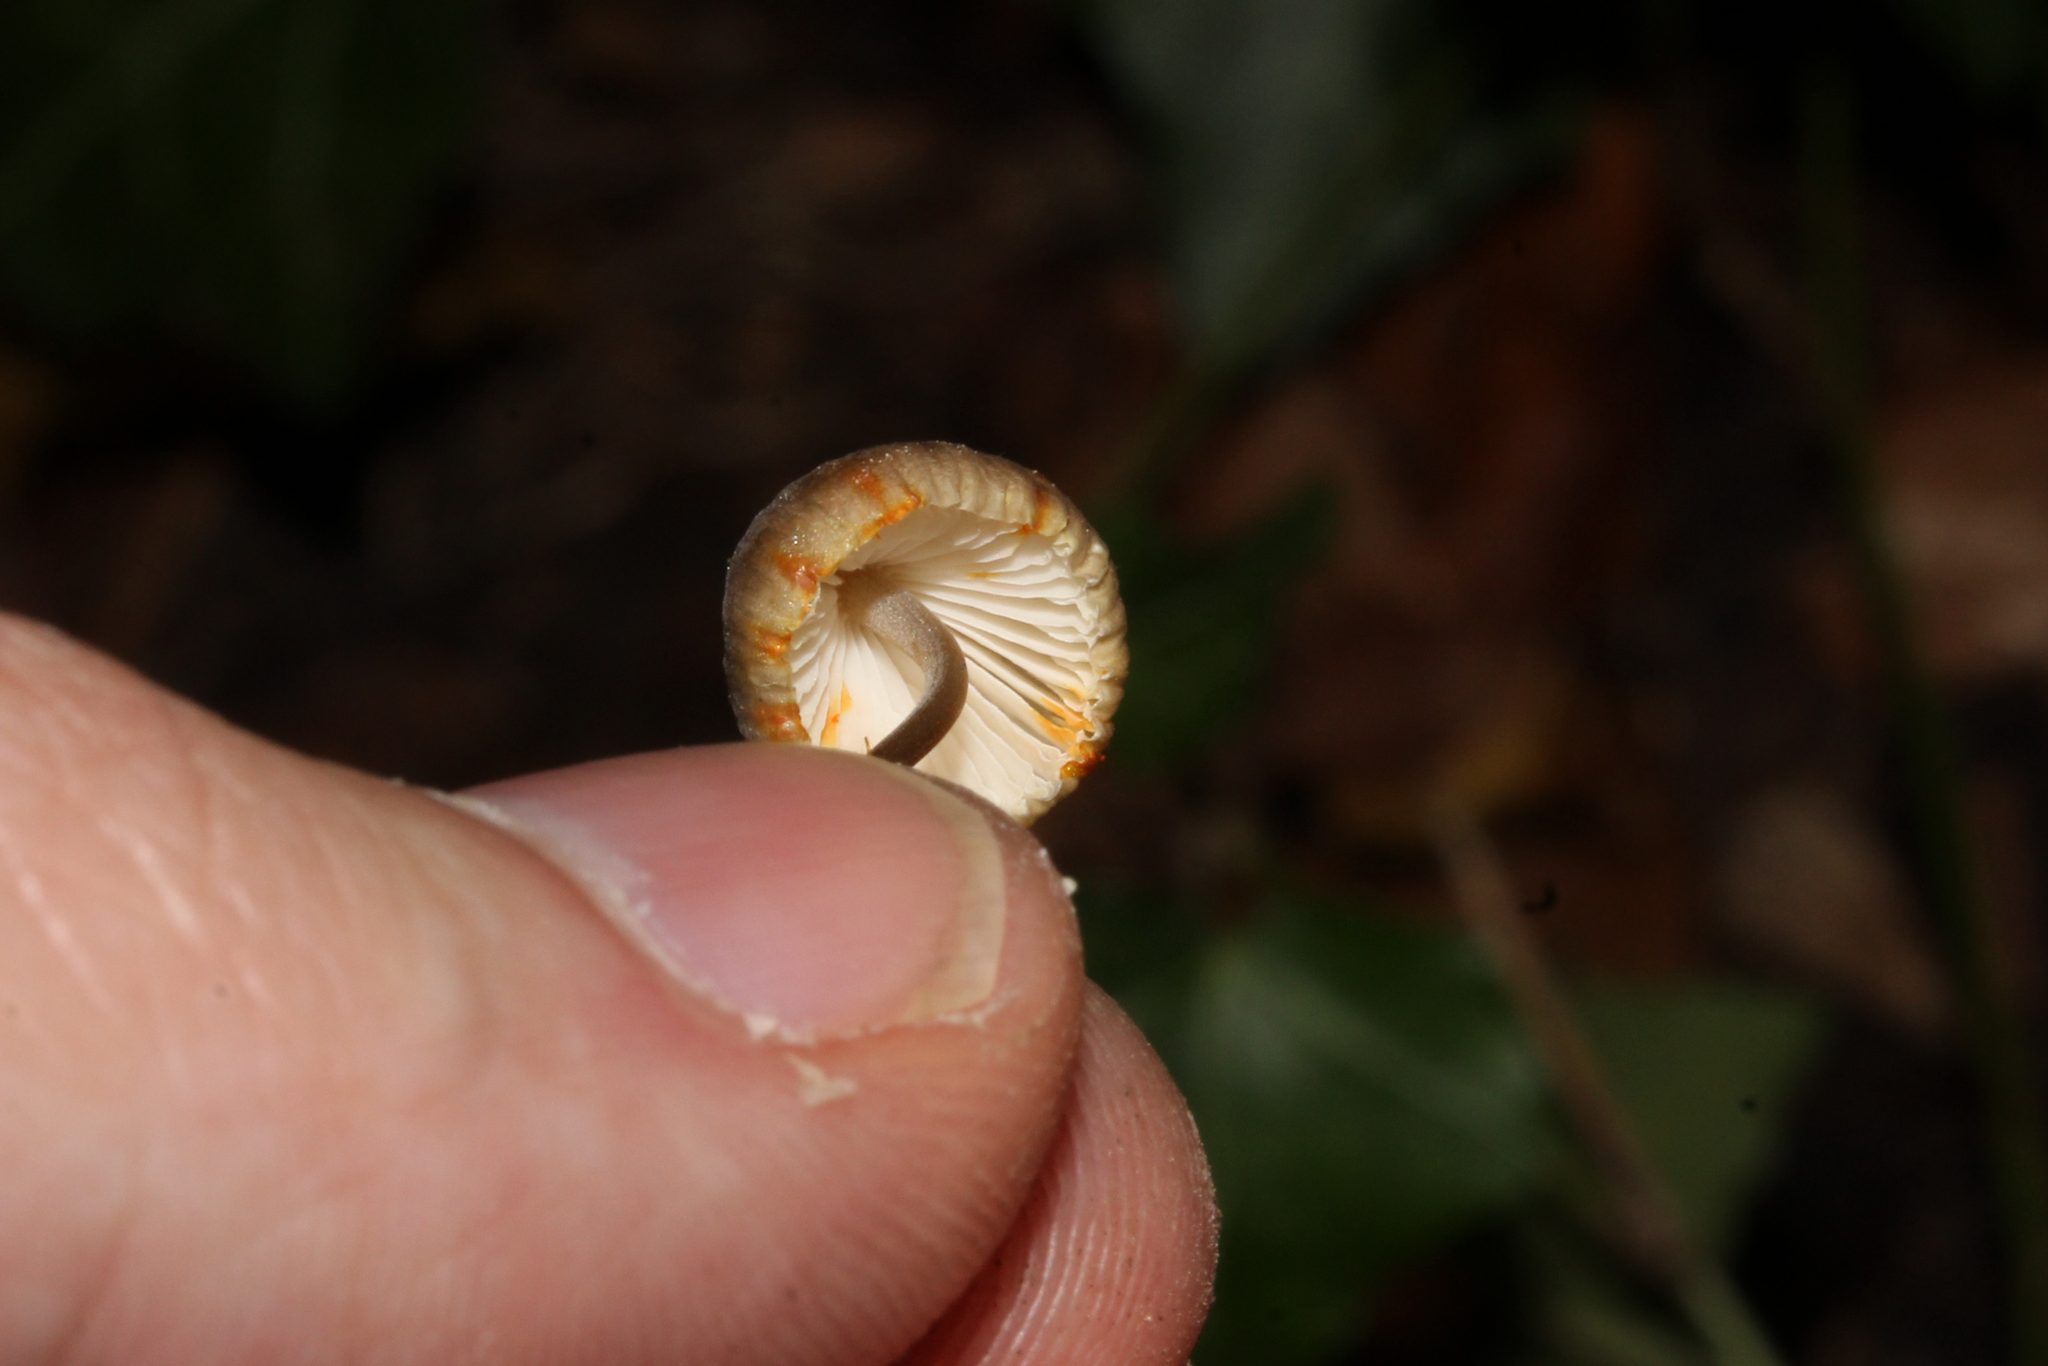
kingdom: Fungi
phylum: Basidiomycota
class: Agaricomycetes
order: Agaricales
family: Mycenaceae
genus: Mycena
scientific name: Mycena crocata
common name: Saffrondrop bonnet
